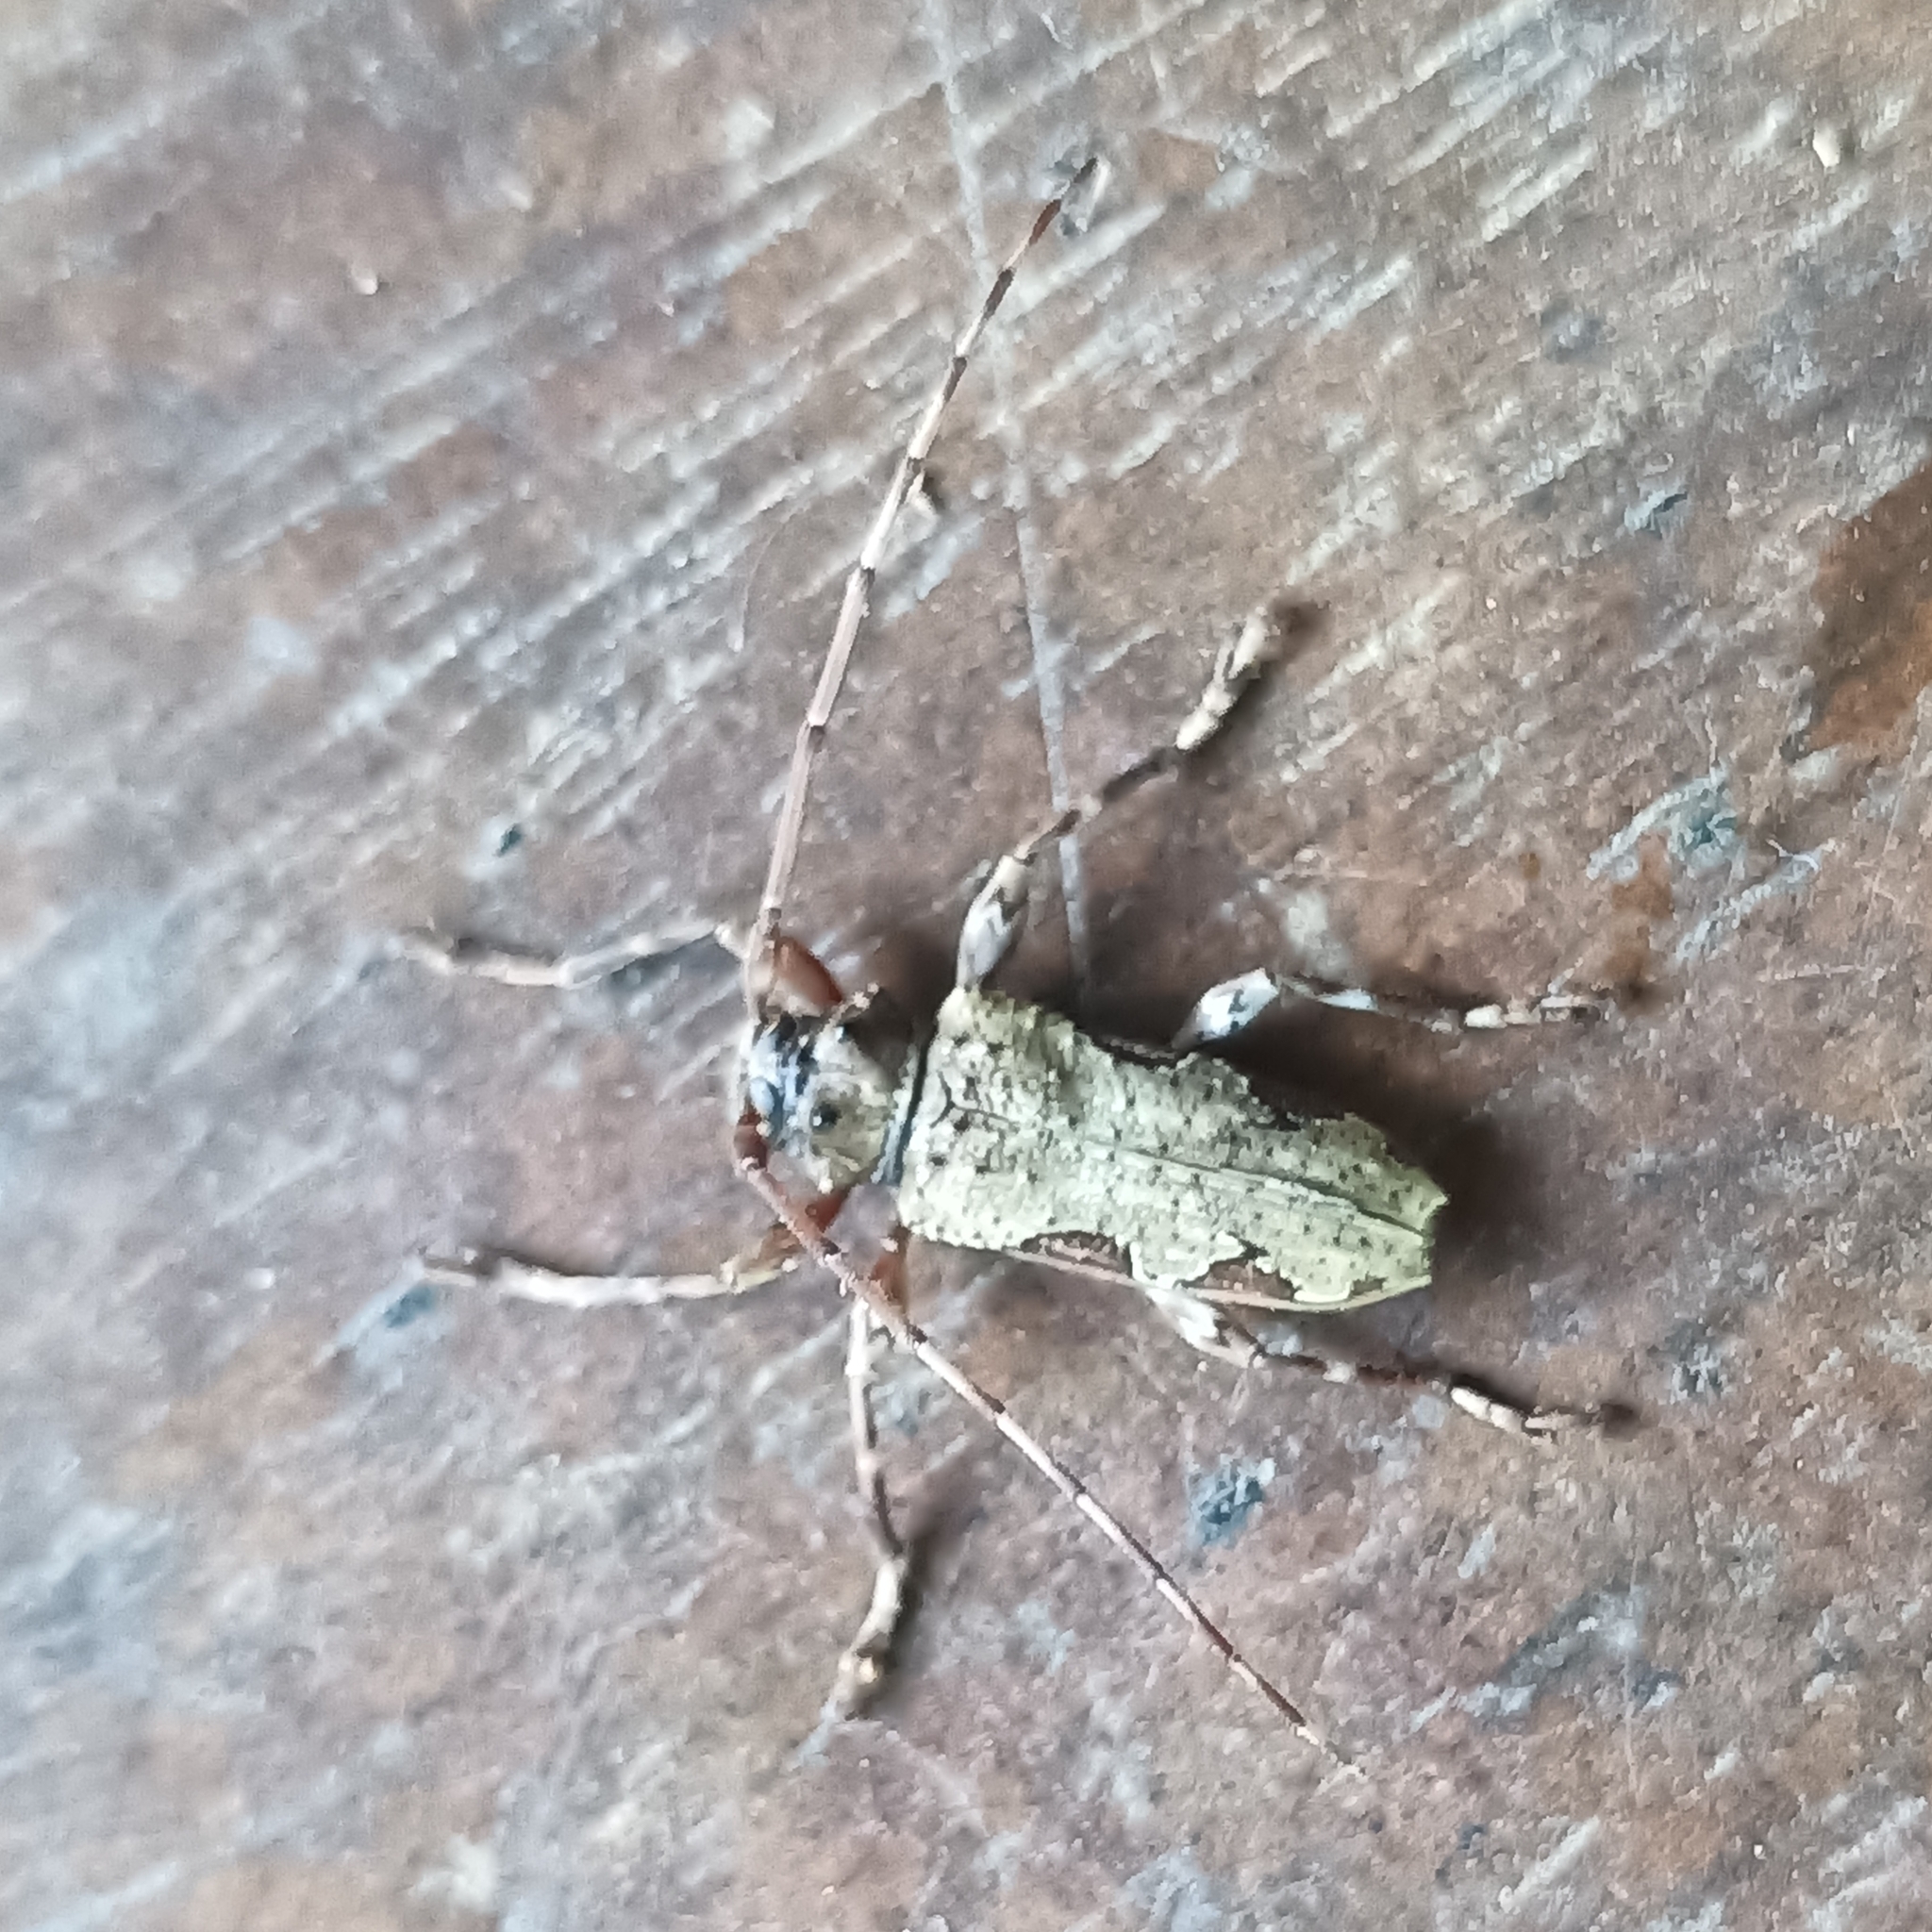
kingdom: Animalia
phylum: Arthropoda
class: Insecta
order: Coleoptera
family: Cerambycidae
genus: Oreodera
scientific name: Oreodera bituberculata
